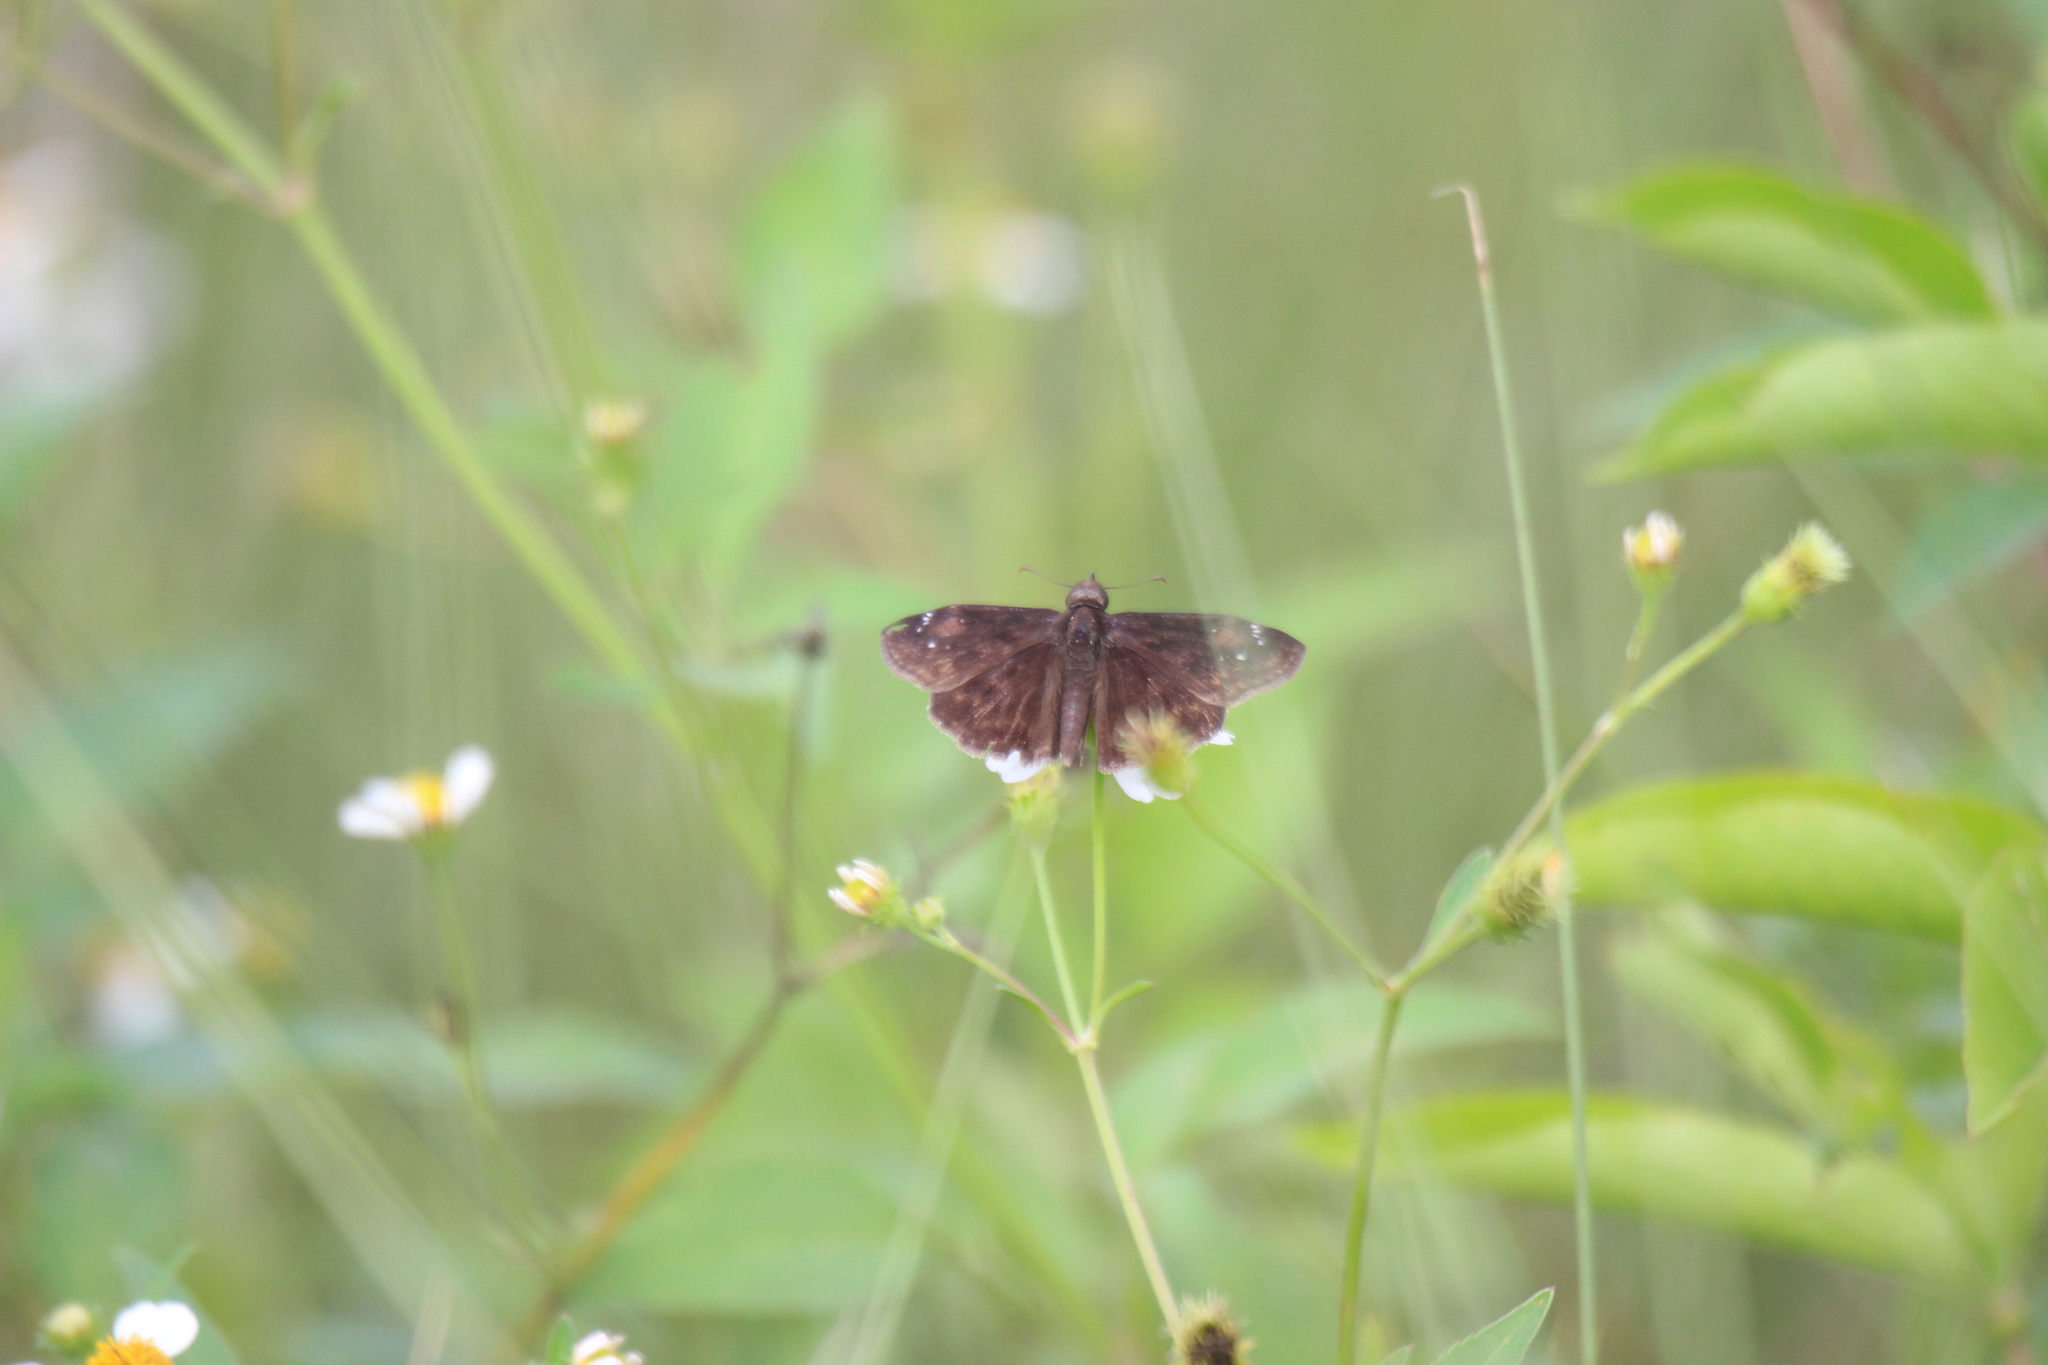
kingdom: Animalia
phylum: Arthropoda
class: Insecta
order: Lepidoptera
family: Hesperiidae
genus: Erynnis
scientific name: Erynnis zarucco
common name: Zarucco duskywing
